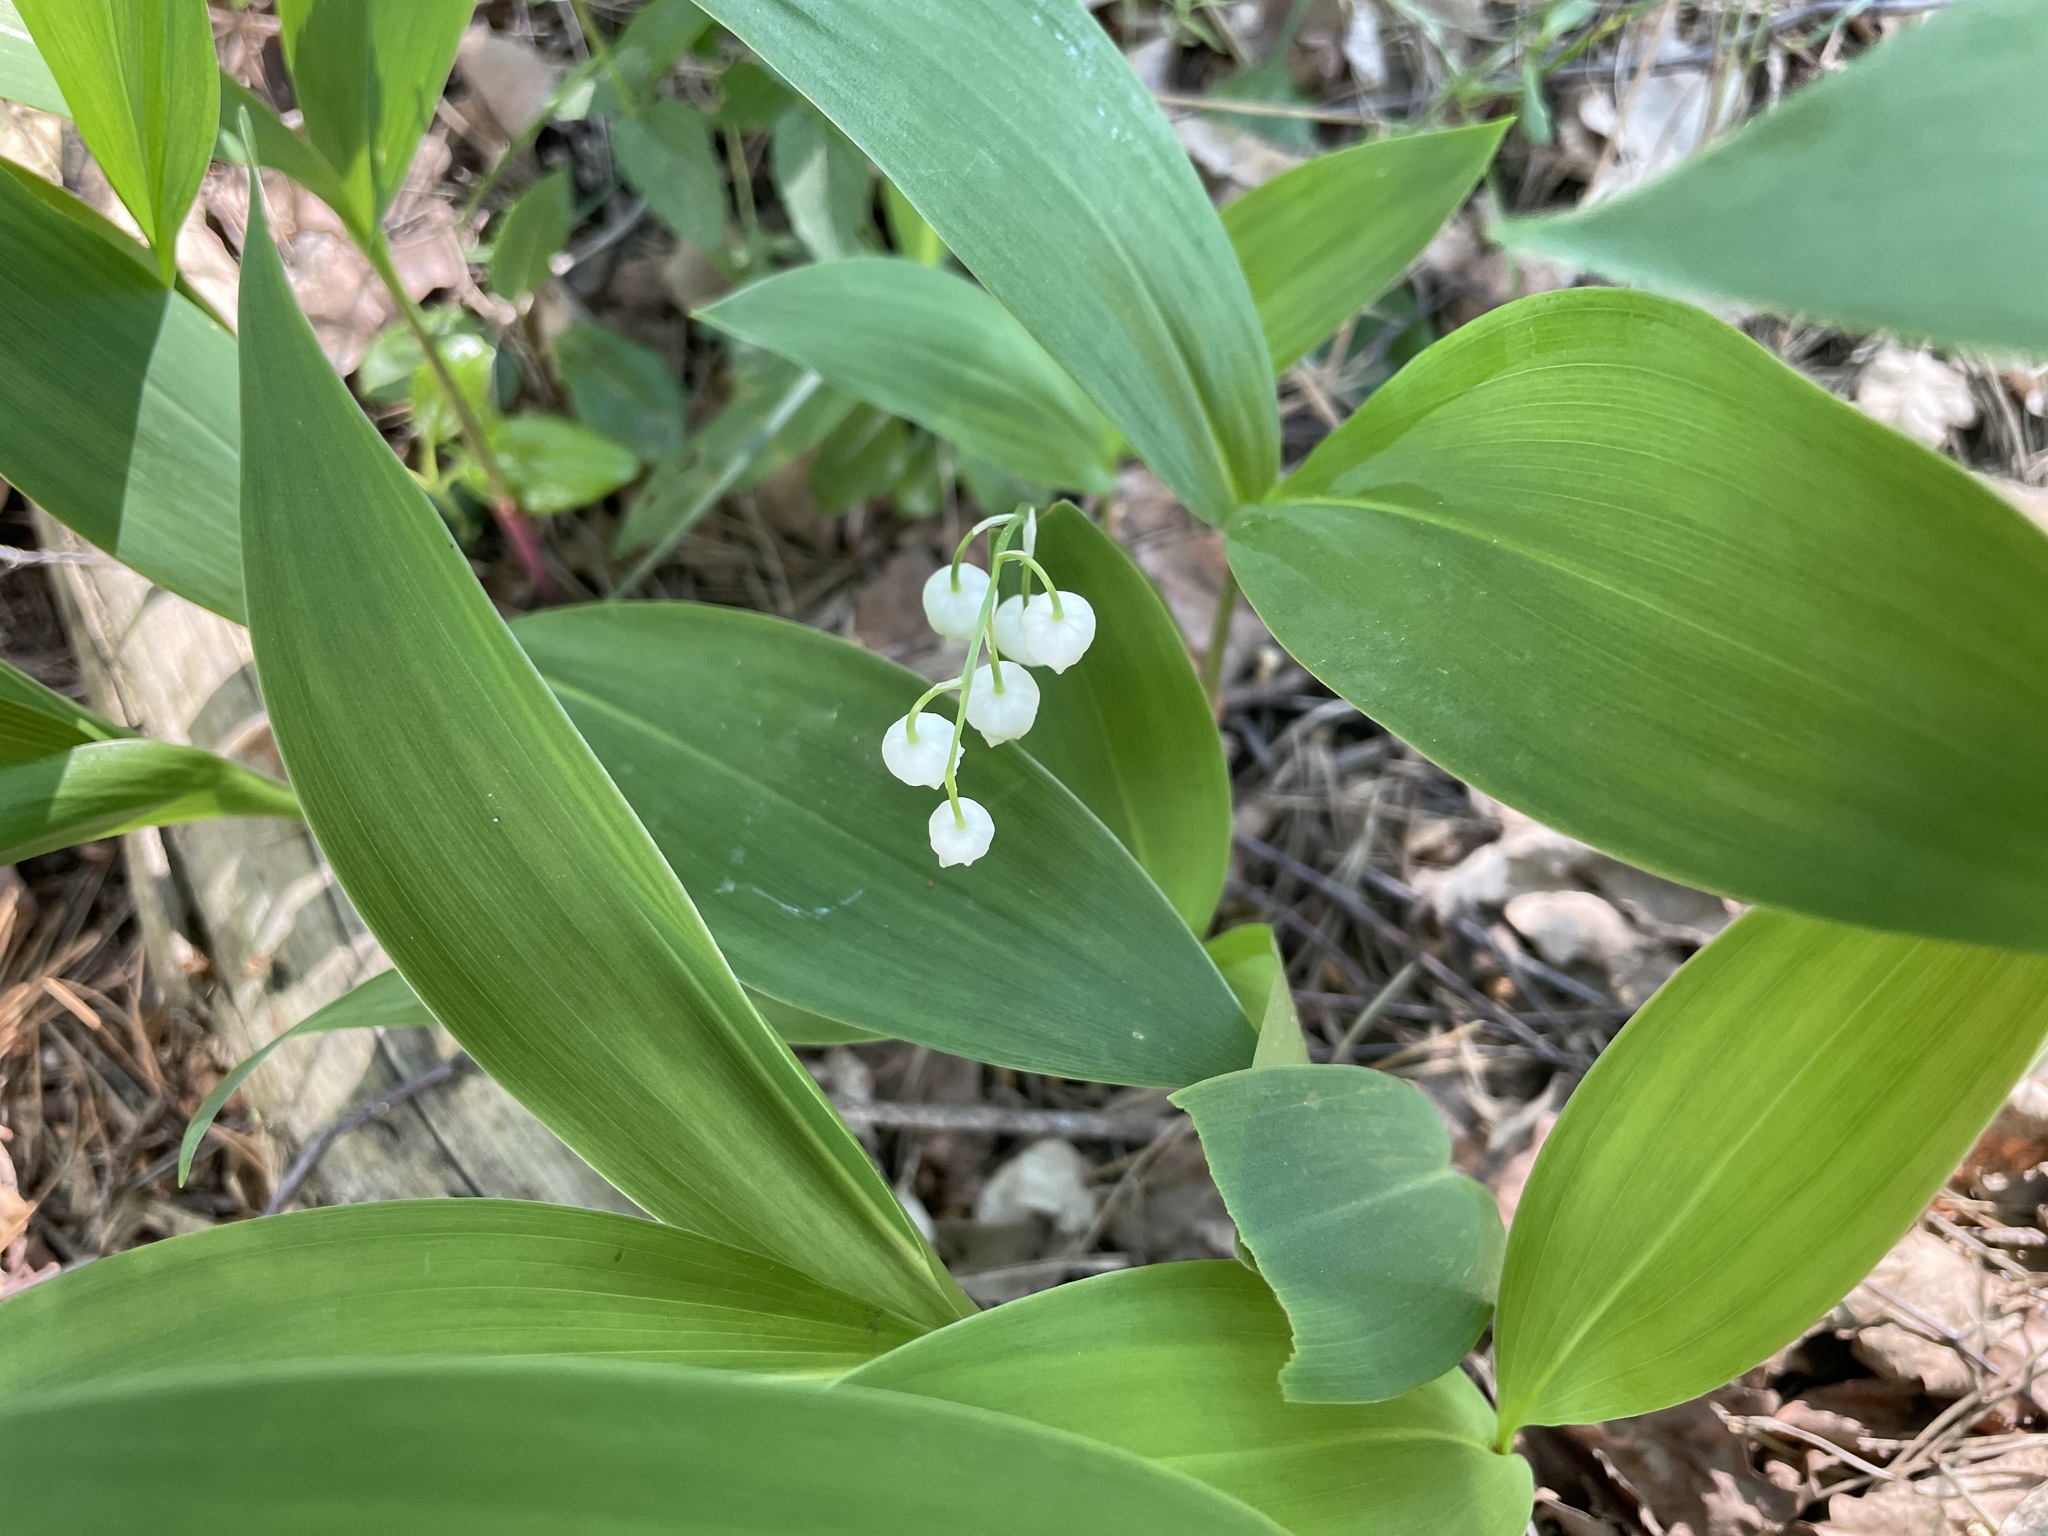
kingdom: Plantae
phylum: Tracheophyta
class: Liliopsida
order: Asparagales
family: Asparagaceae
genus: Convallaria
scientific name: Convallaria majalis
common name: Lily-of-the-valley
